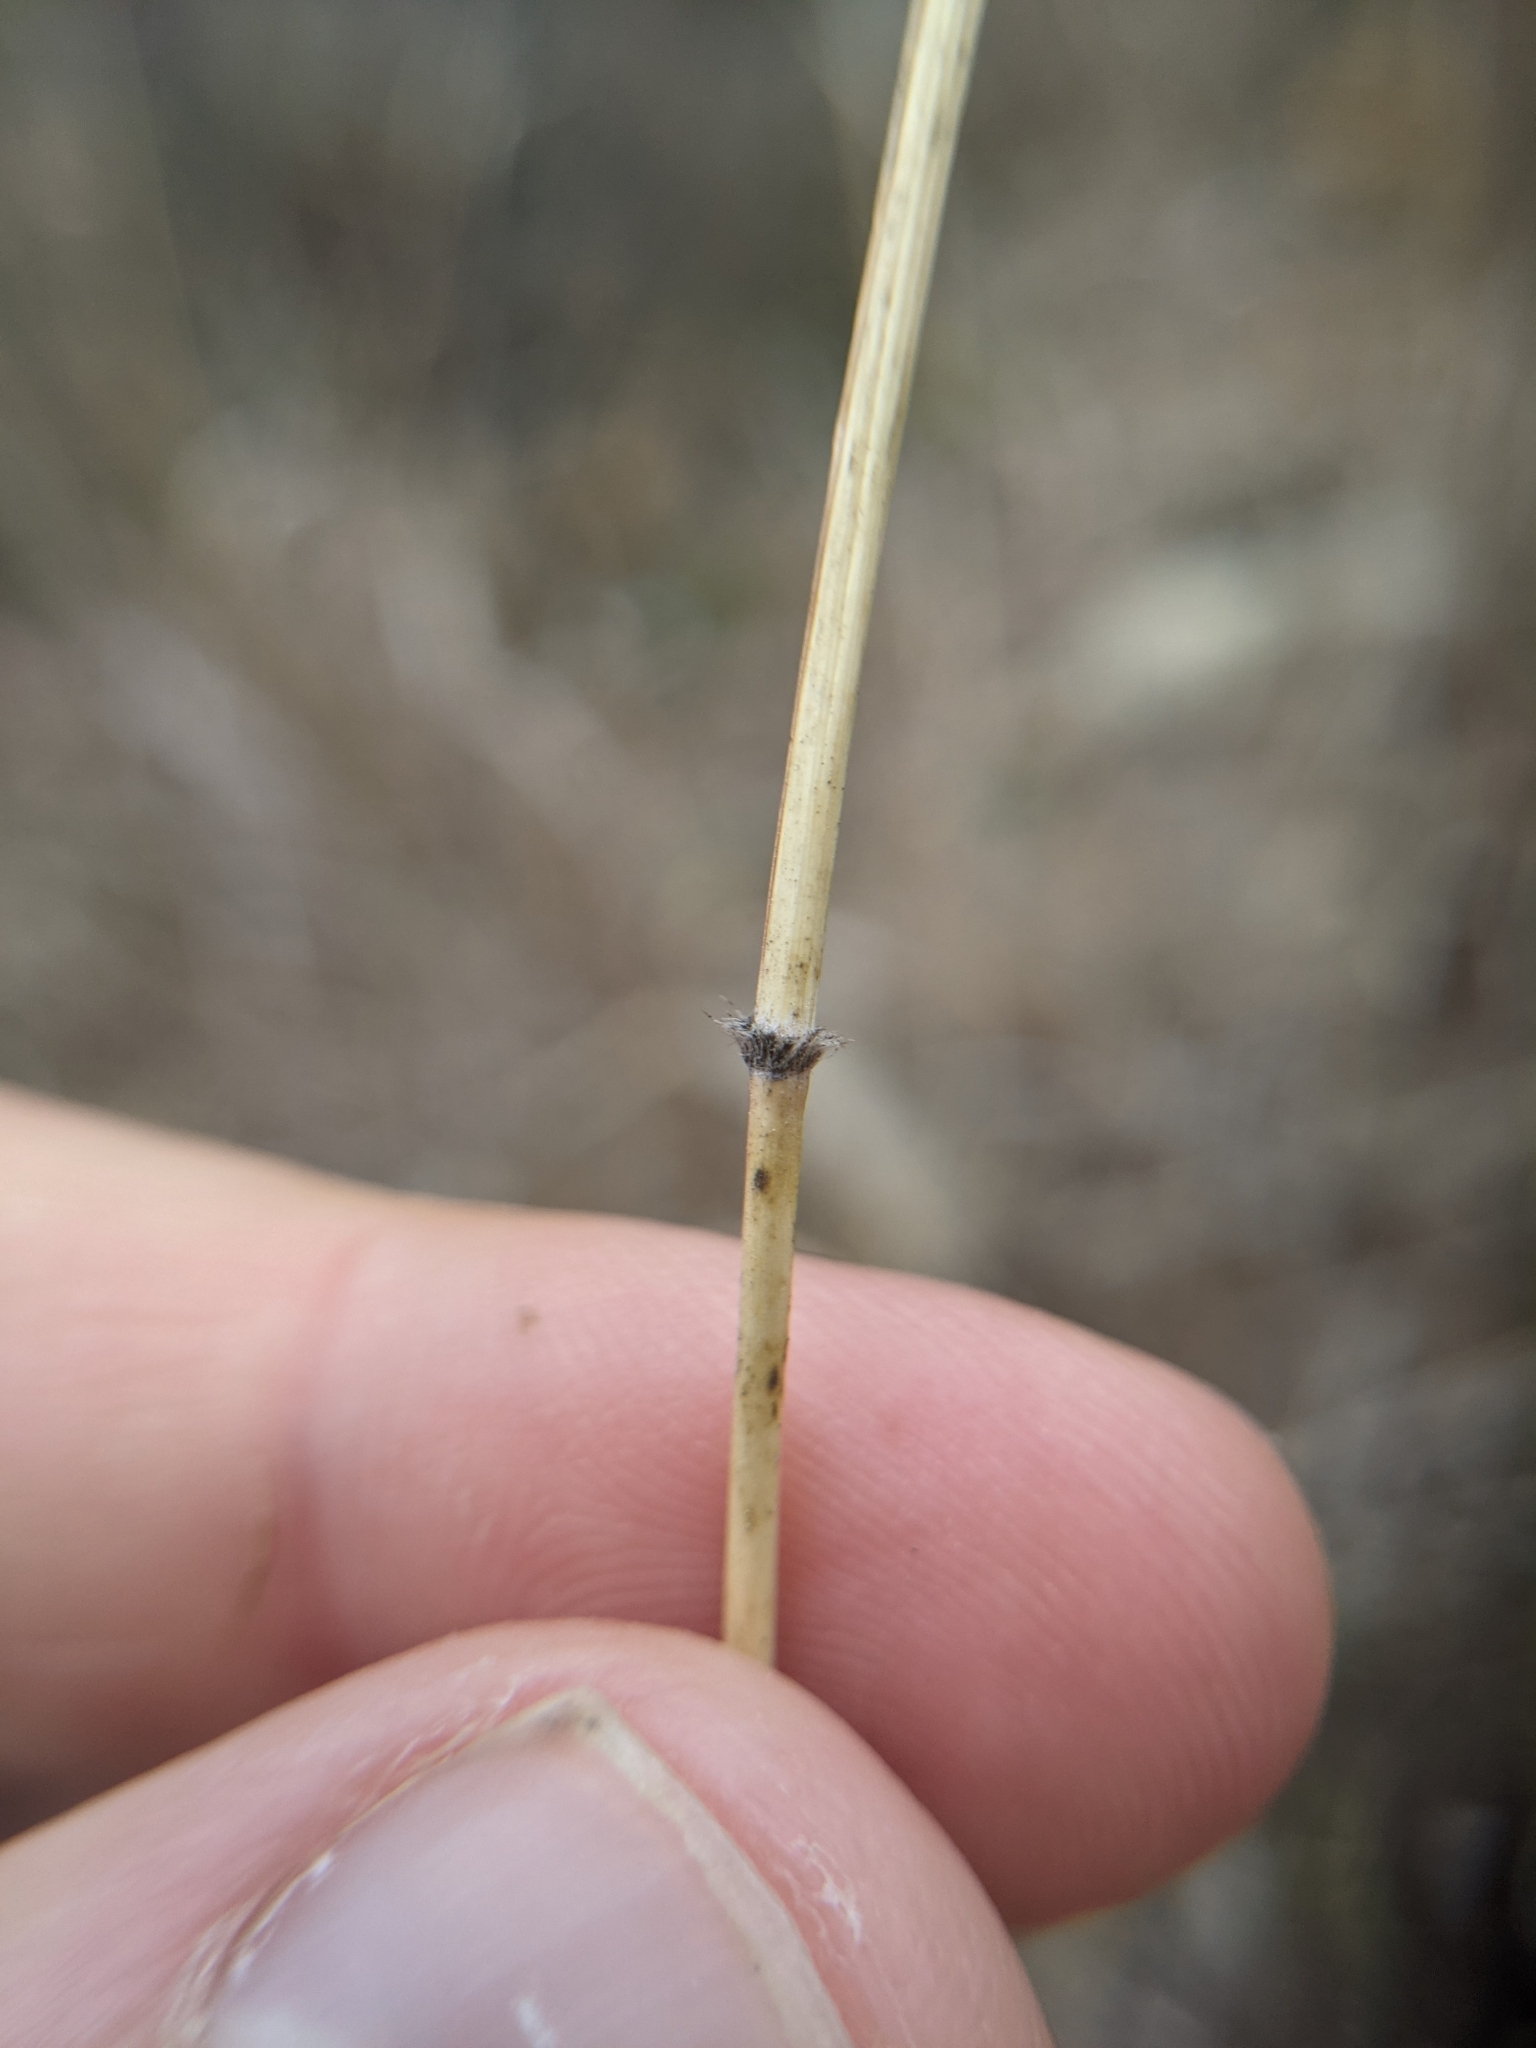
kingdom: Plantae
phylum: Tracheophyta
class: Liliopsida
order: Poales
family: Poaceae
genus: Bothriochloa
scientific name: Bothriochloa barbinodis
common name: Cane bluestem
